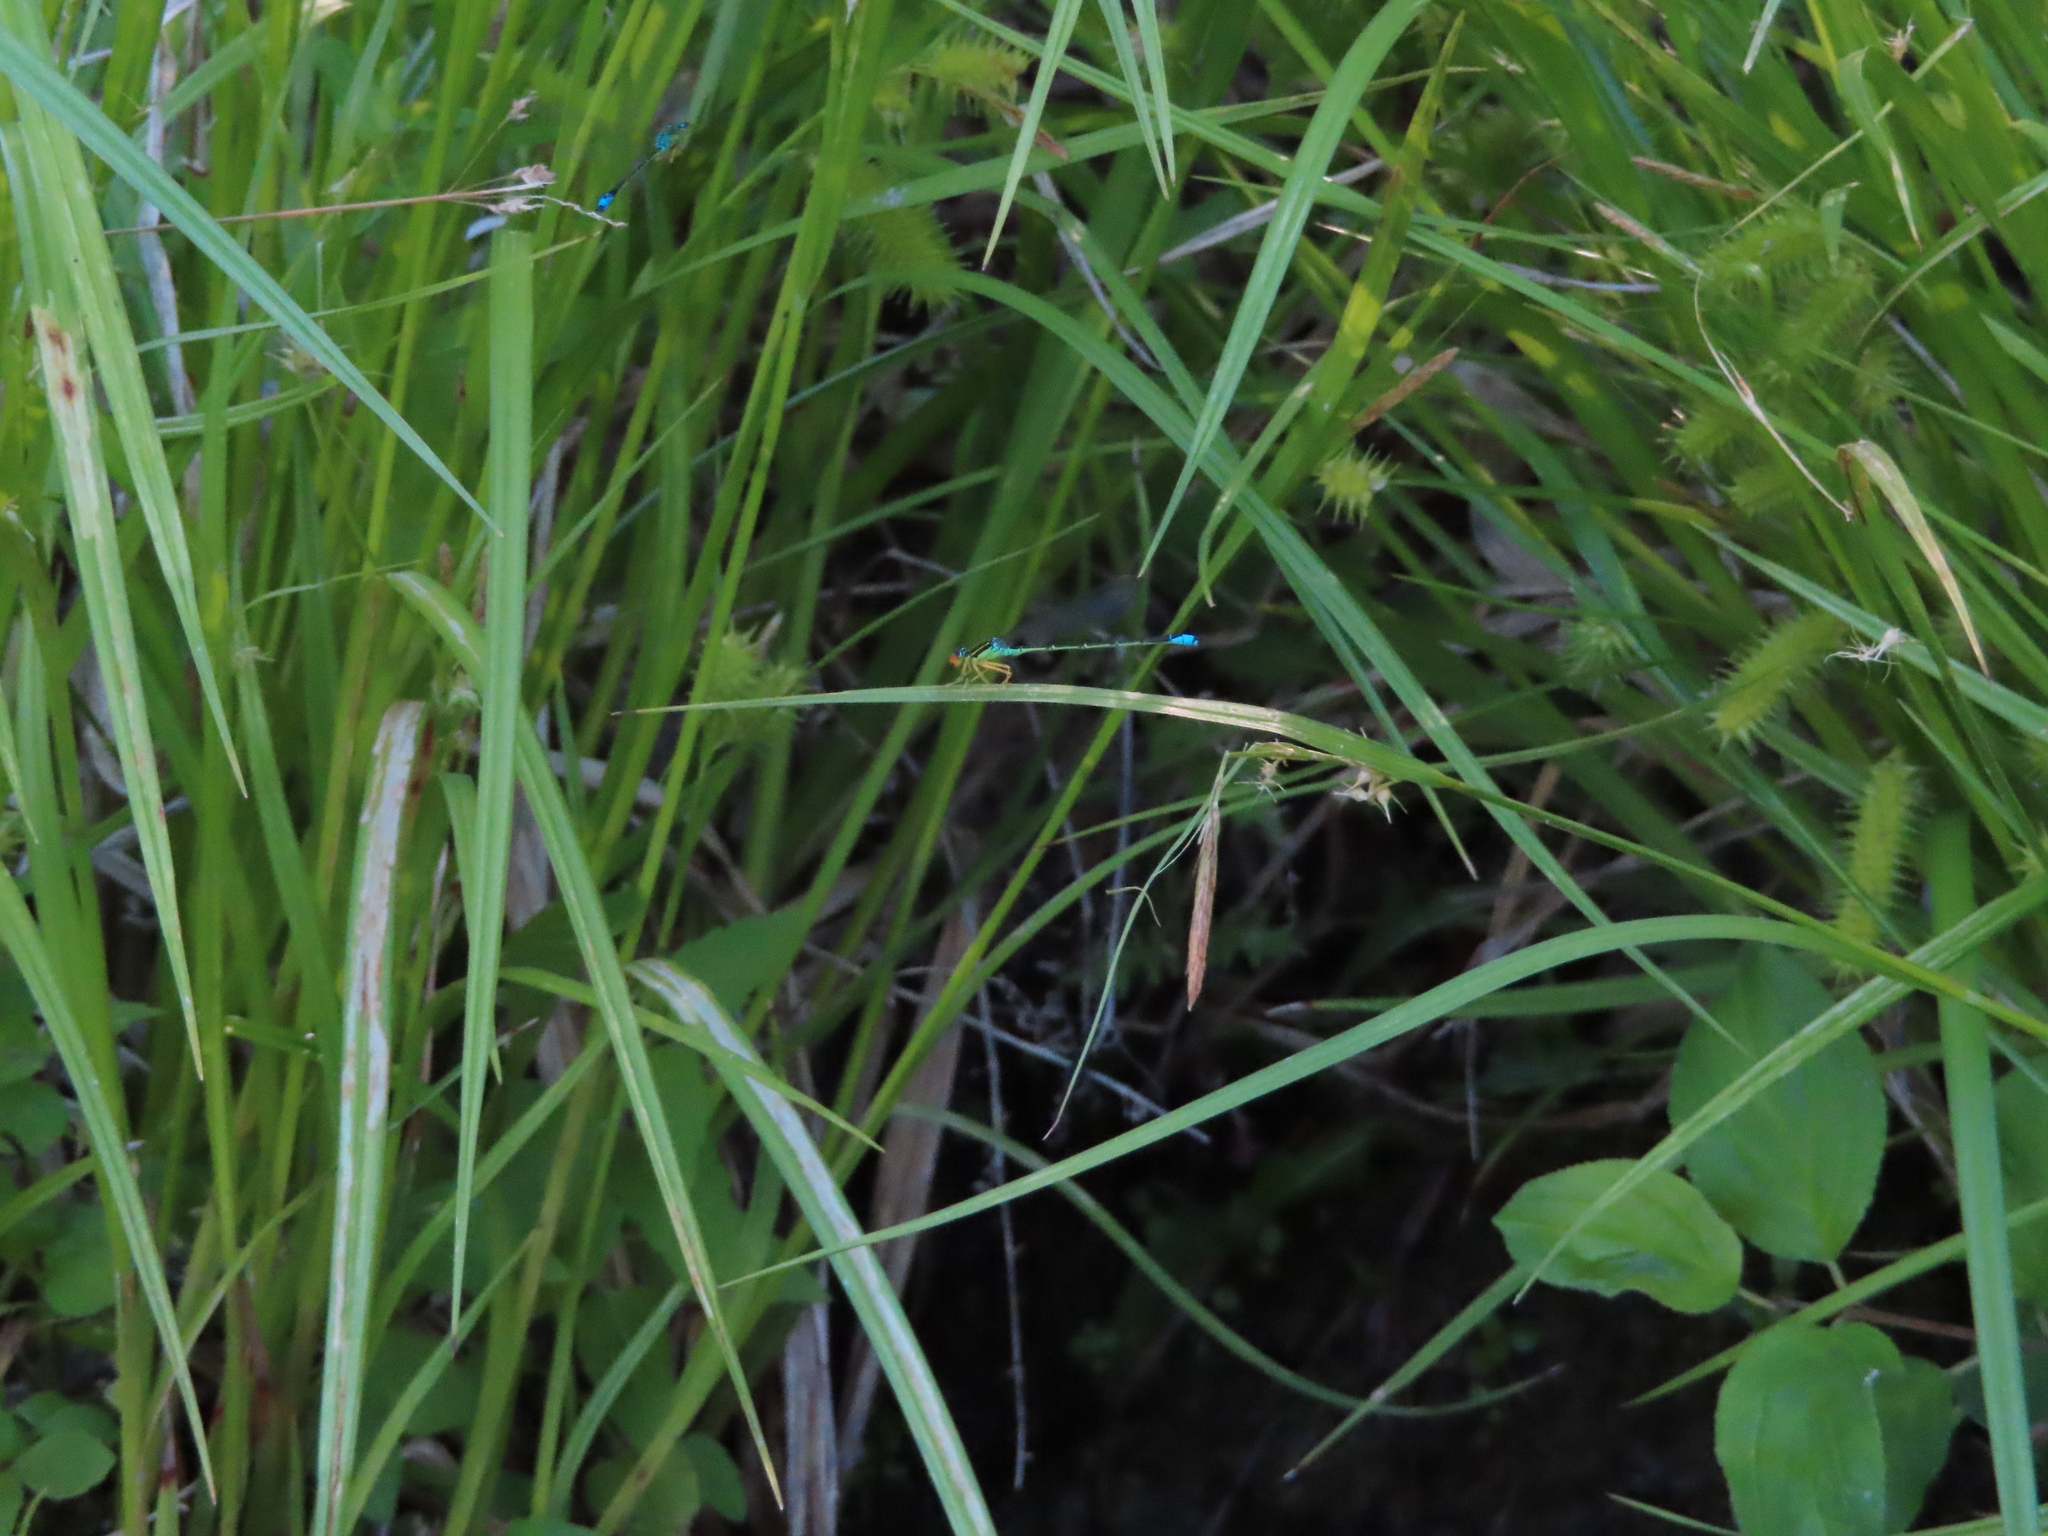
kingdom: Animalia
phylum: Arthropoda
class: Insecta
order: Odonata
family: Coenagrionidae
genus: Enallagma
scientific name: Enallagma antennatum
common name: Rainbow bluet
